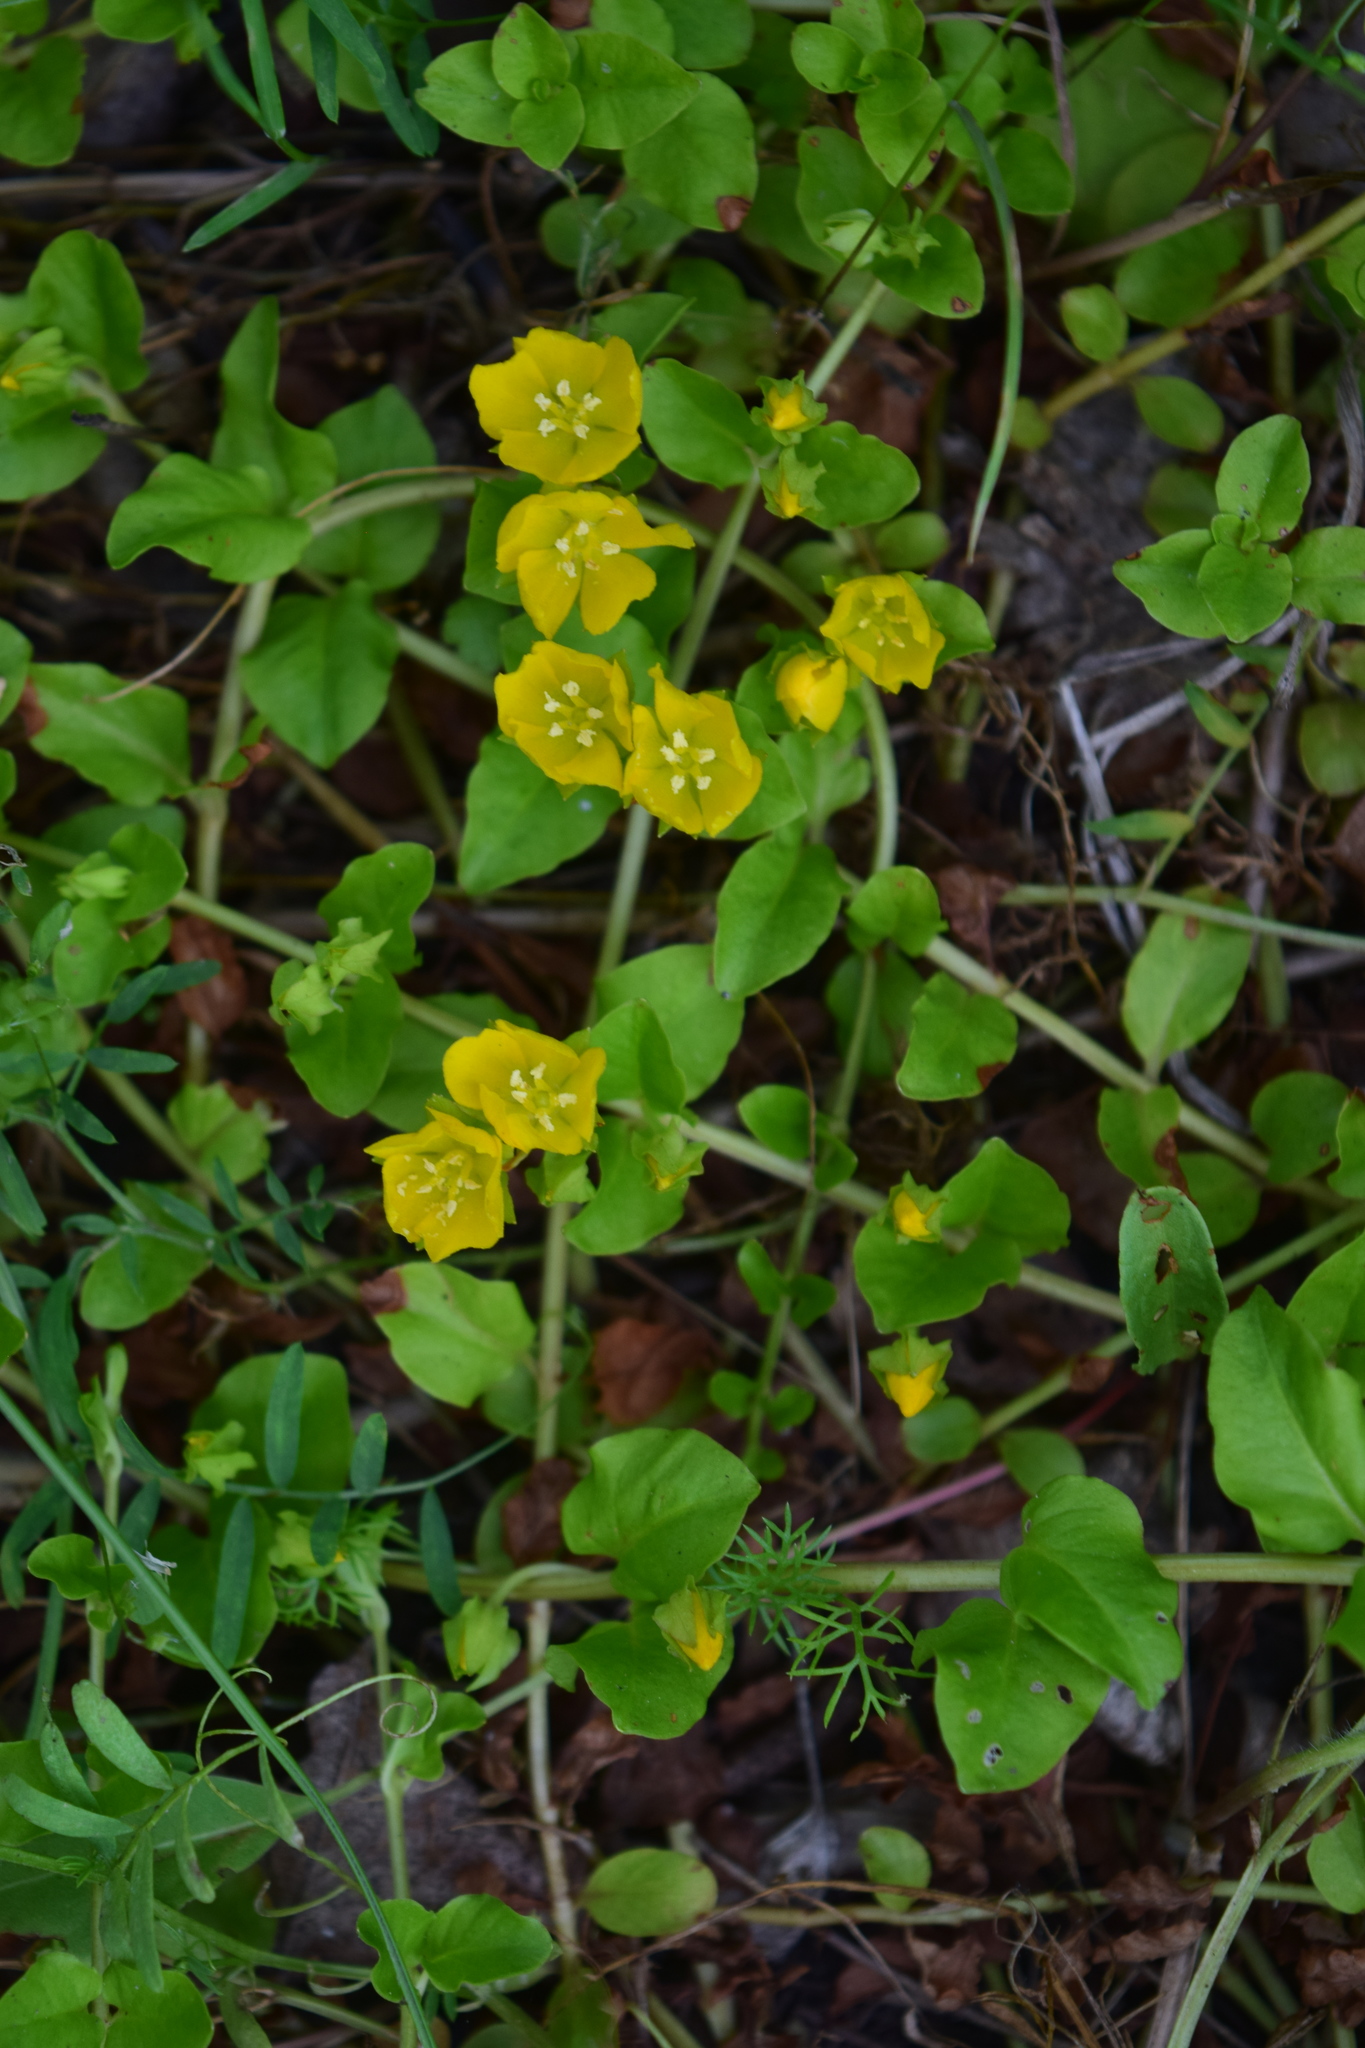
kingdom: Plantae
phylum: Tracheophyta
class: Magnoliopsida
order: Ericales
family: Primulaceae
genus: Lysimachia
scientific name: Lysimachia nummularia
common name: Moneywort
